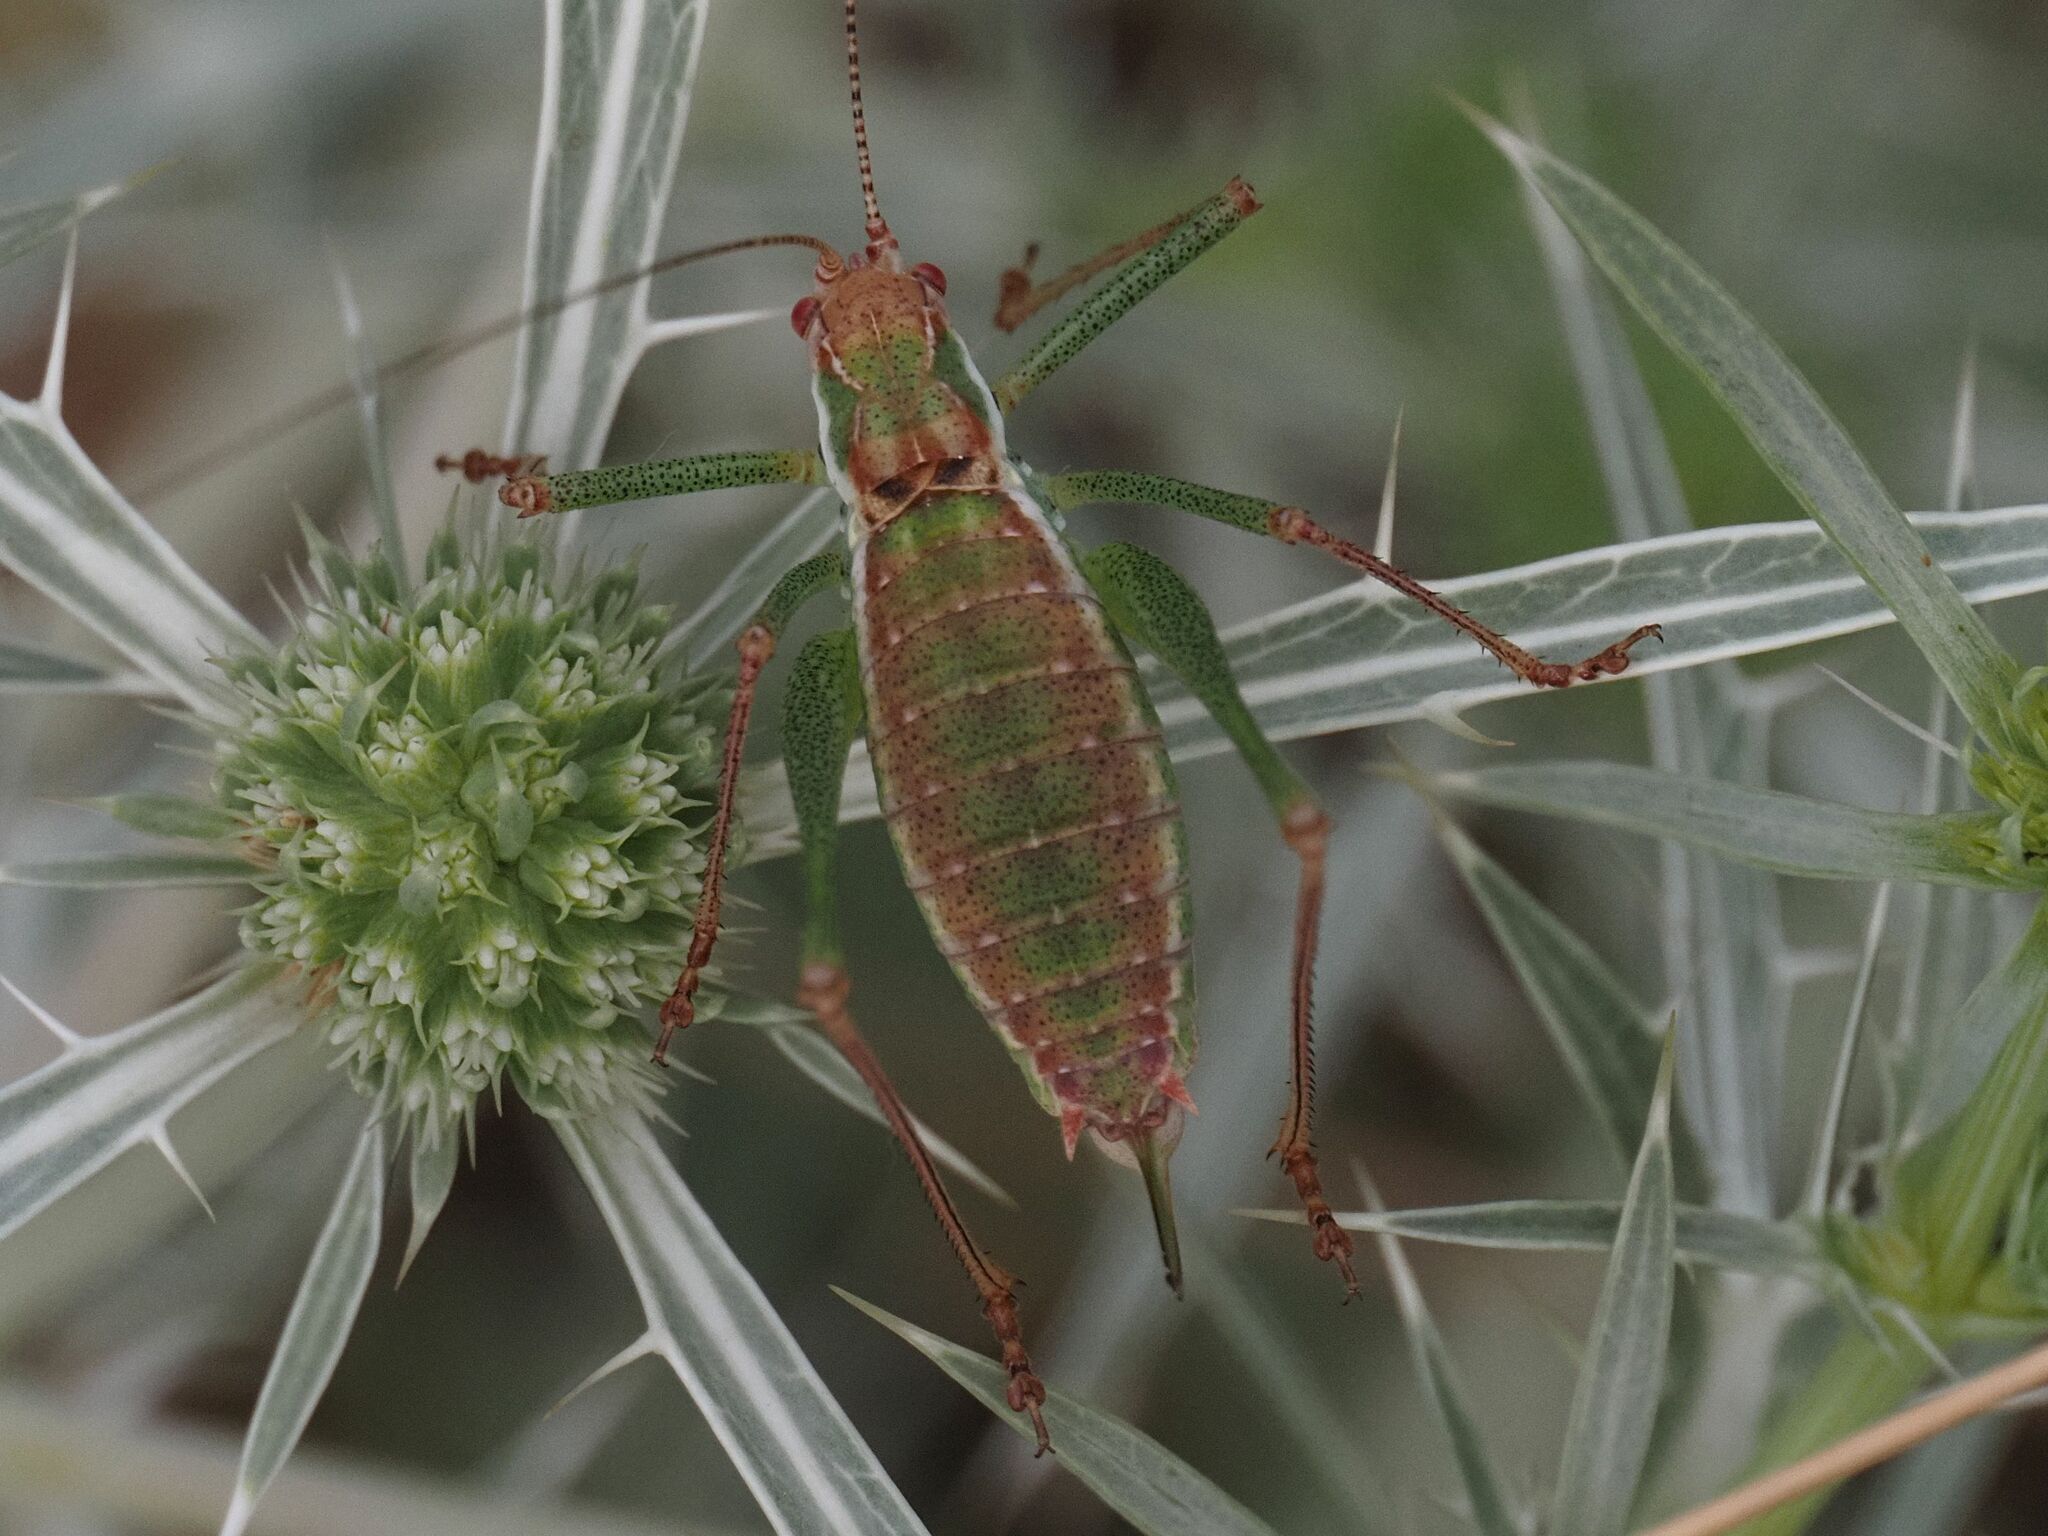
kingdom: Animalia
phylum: Arthropoda
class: Insecta
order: Orthoptera
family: Tettigoniidae
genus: Leptophyes
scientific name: Leptophyes albovittata
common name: Striped bush-cricket
